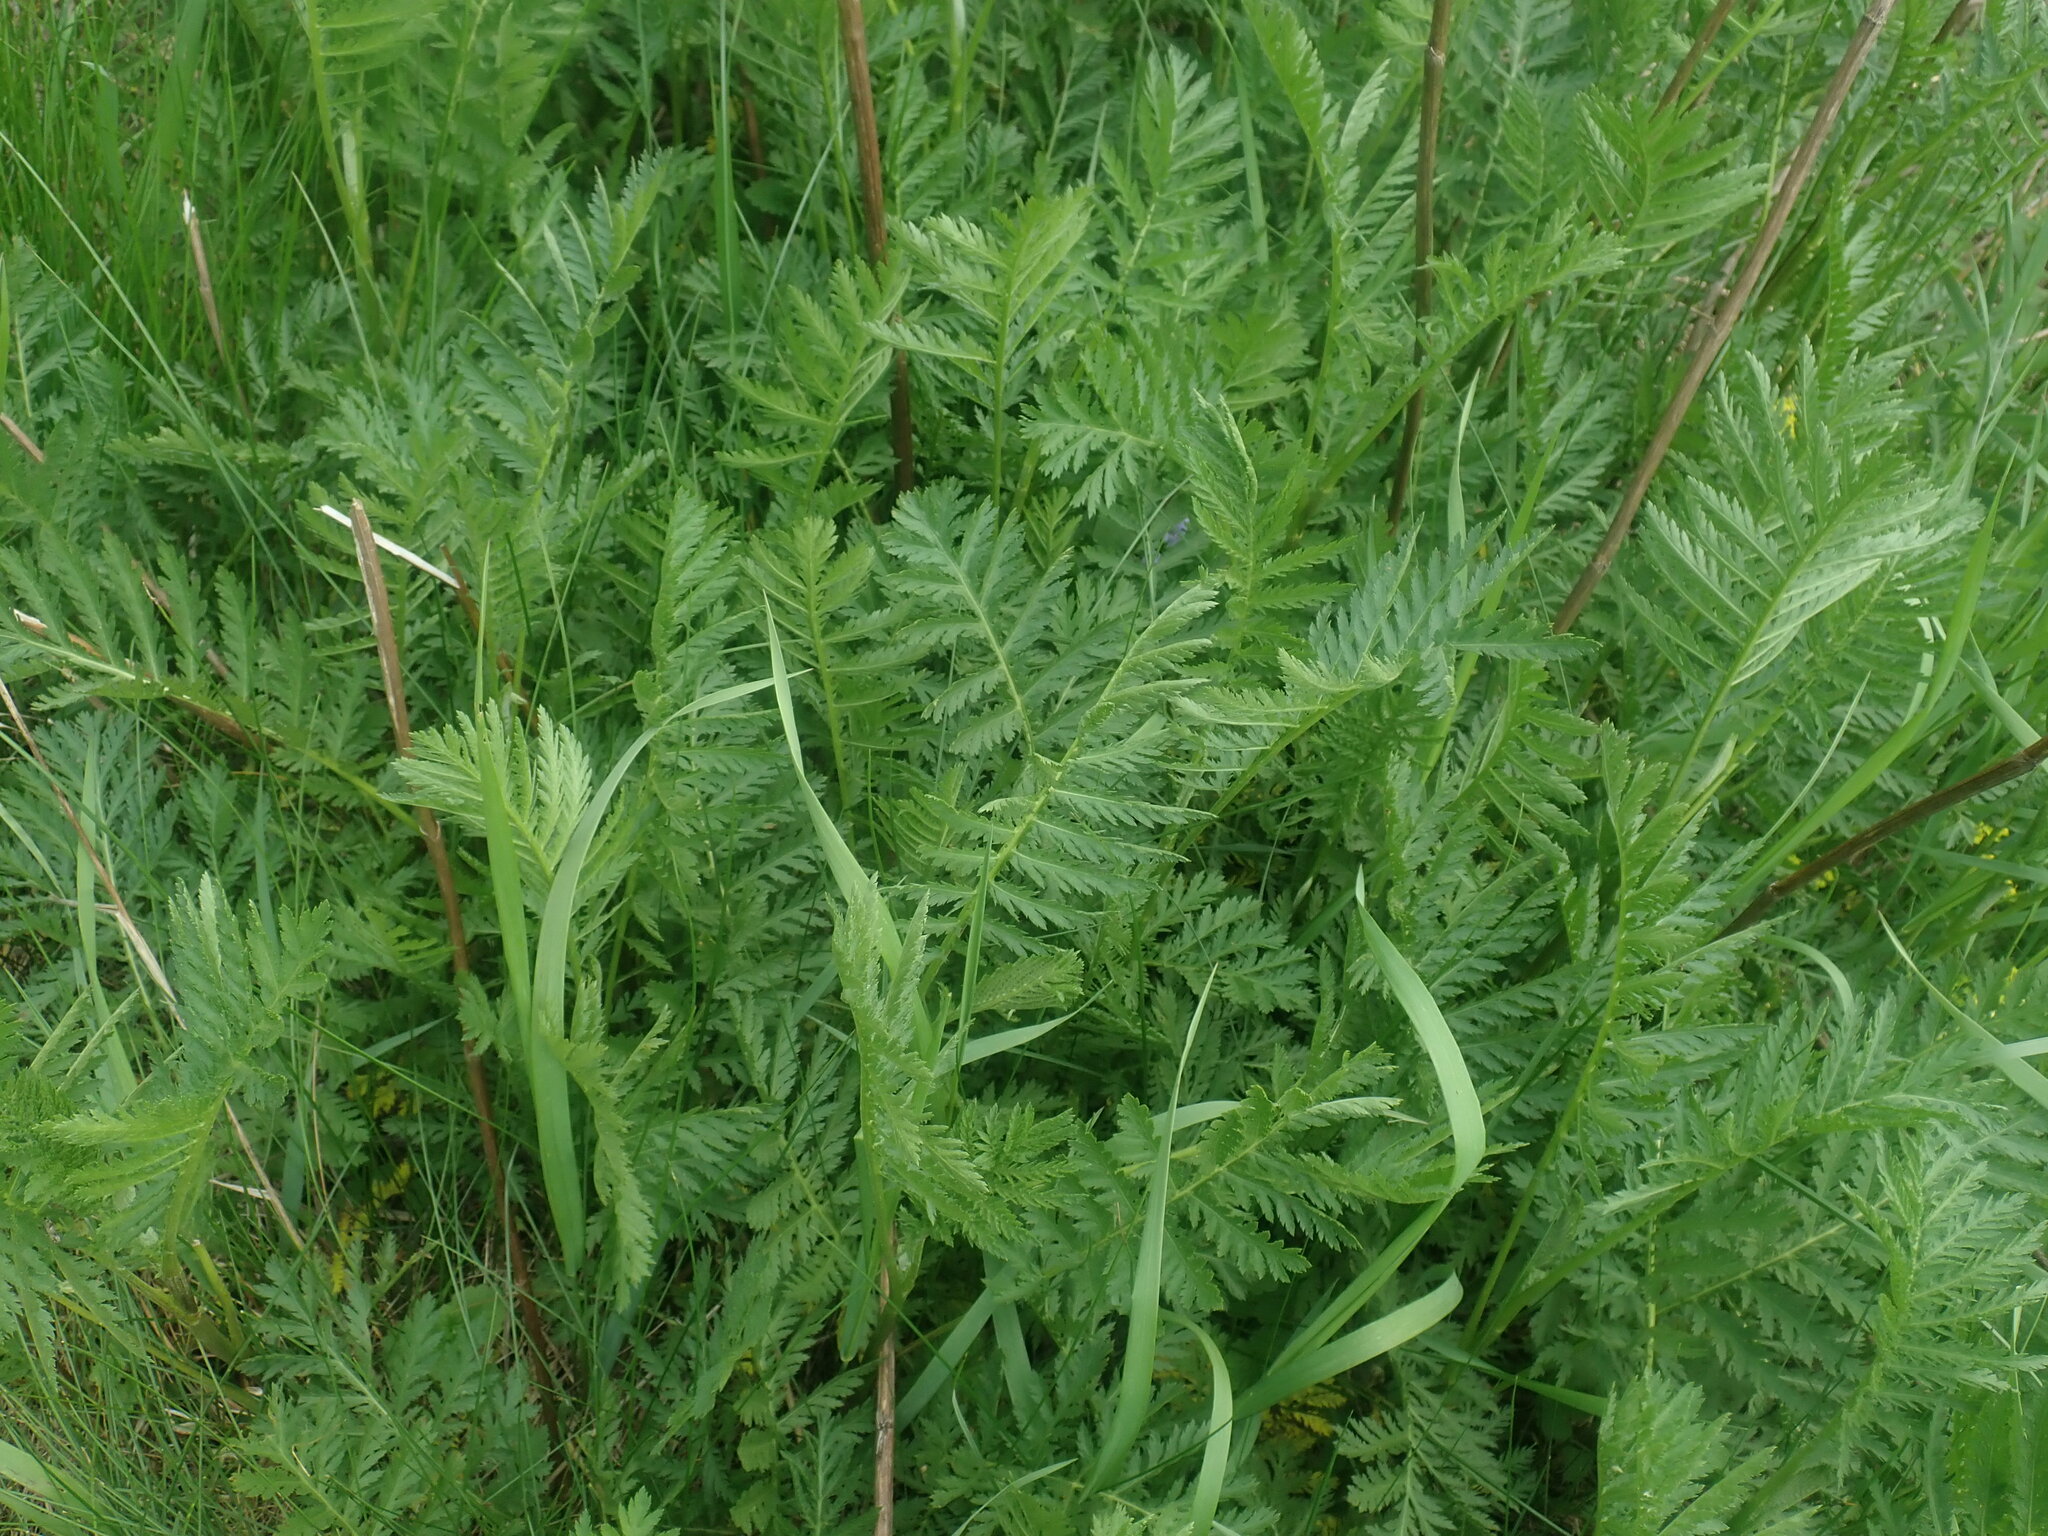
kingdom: Plantae
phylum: Tracheophyta
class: Magnoliopsida
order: Asterales
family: Asteraceae
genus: Tanacetum
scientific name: Tanacetum vulgare
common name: Common tansy
